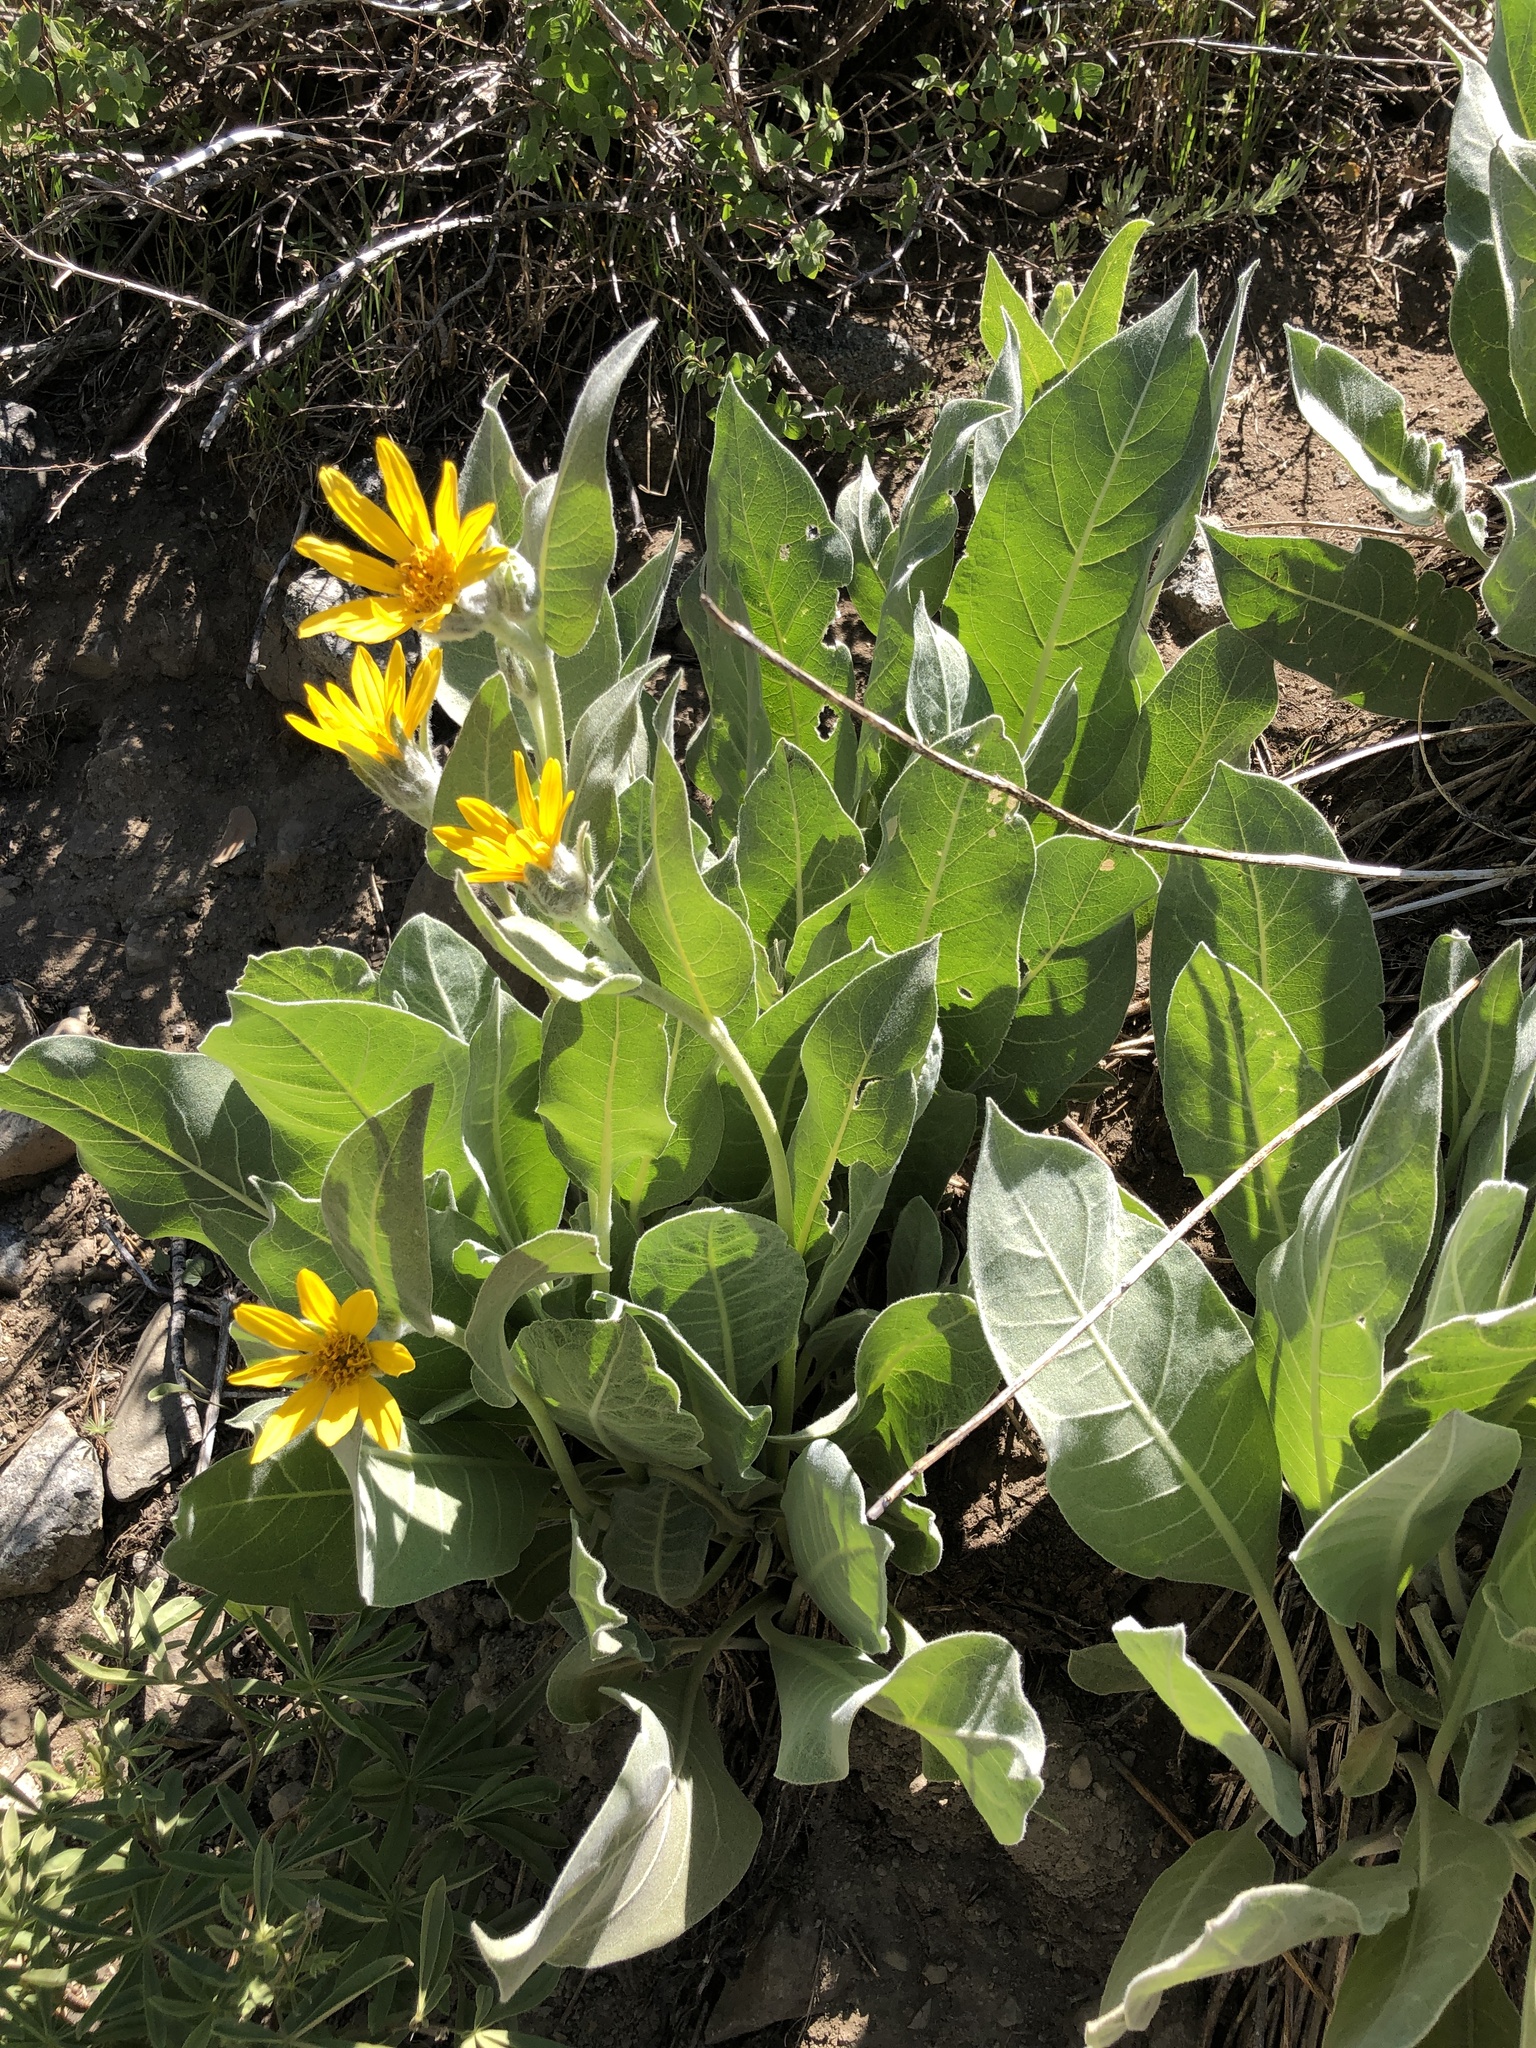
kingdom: Plantae
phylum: Tracheophyta
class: Magnoliopsida
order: Asterales
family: Asteraceae
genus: Wyethia
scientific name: Wyethia mollis
